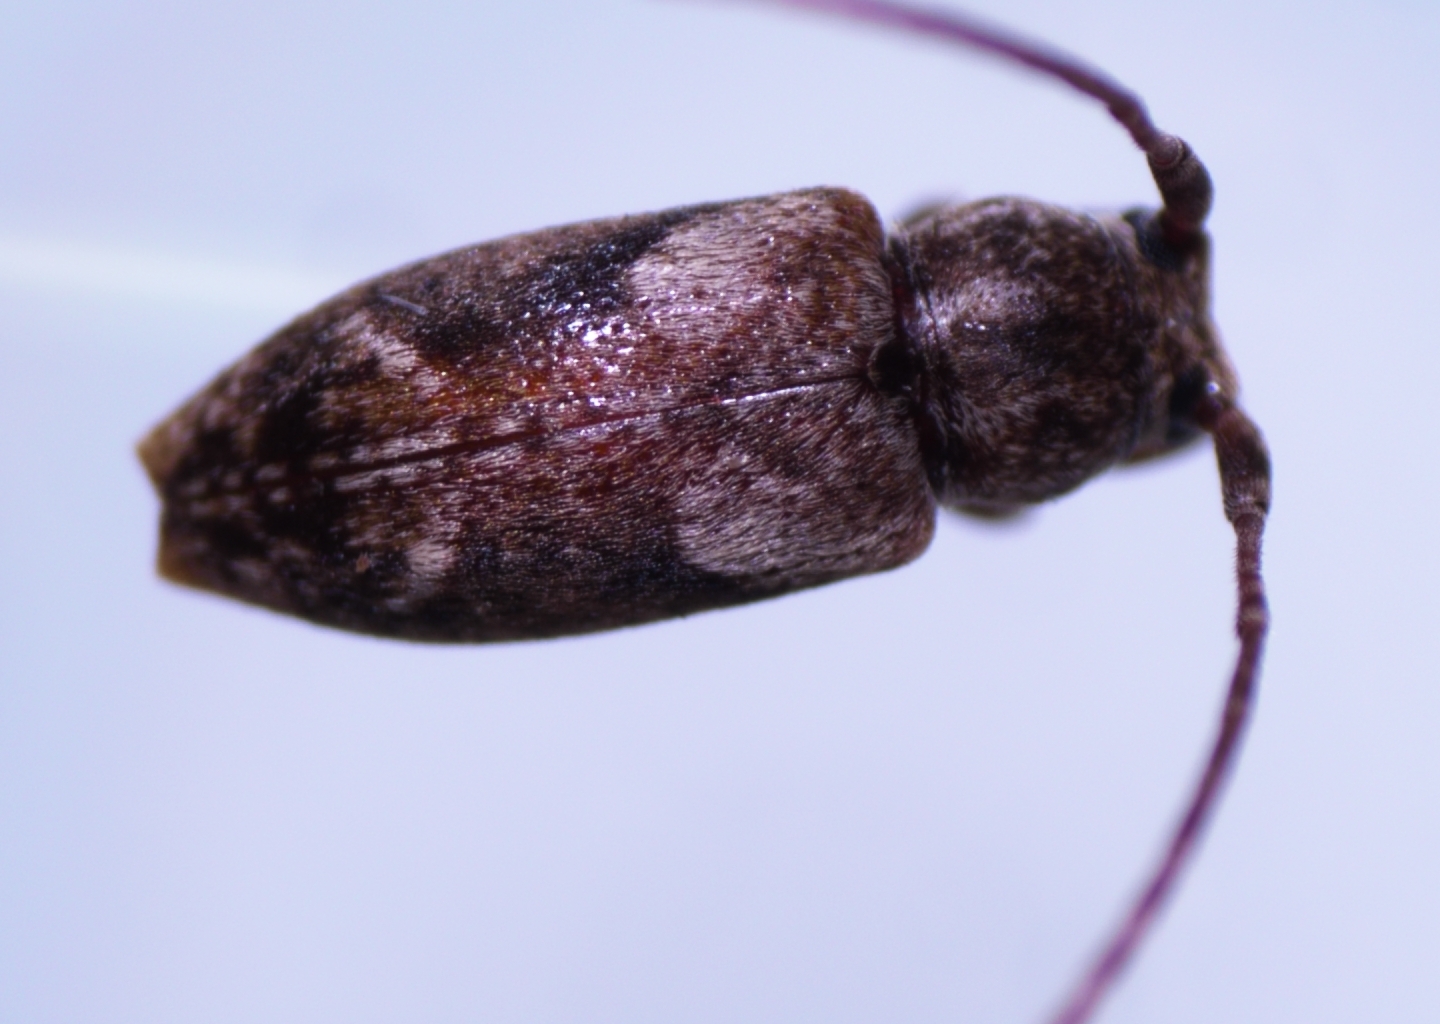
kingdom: Animalia
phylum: Arthropoda
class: Insecta
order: Coleoptera
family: Cerambycidae
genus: Pterolophia
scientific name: Pterolophia lateripicta
